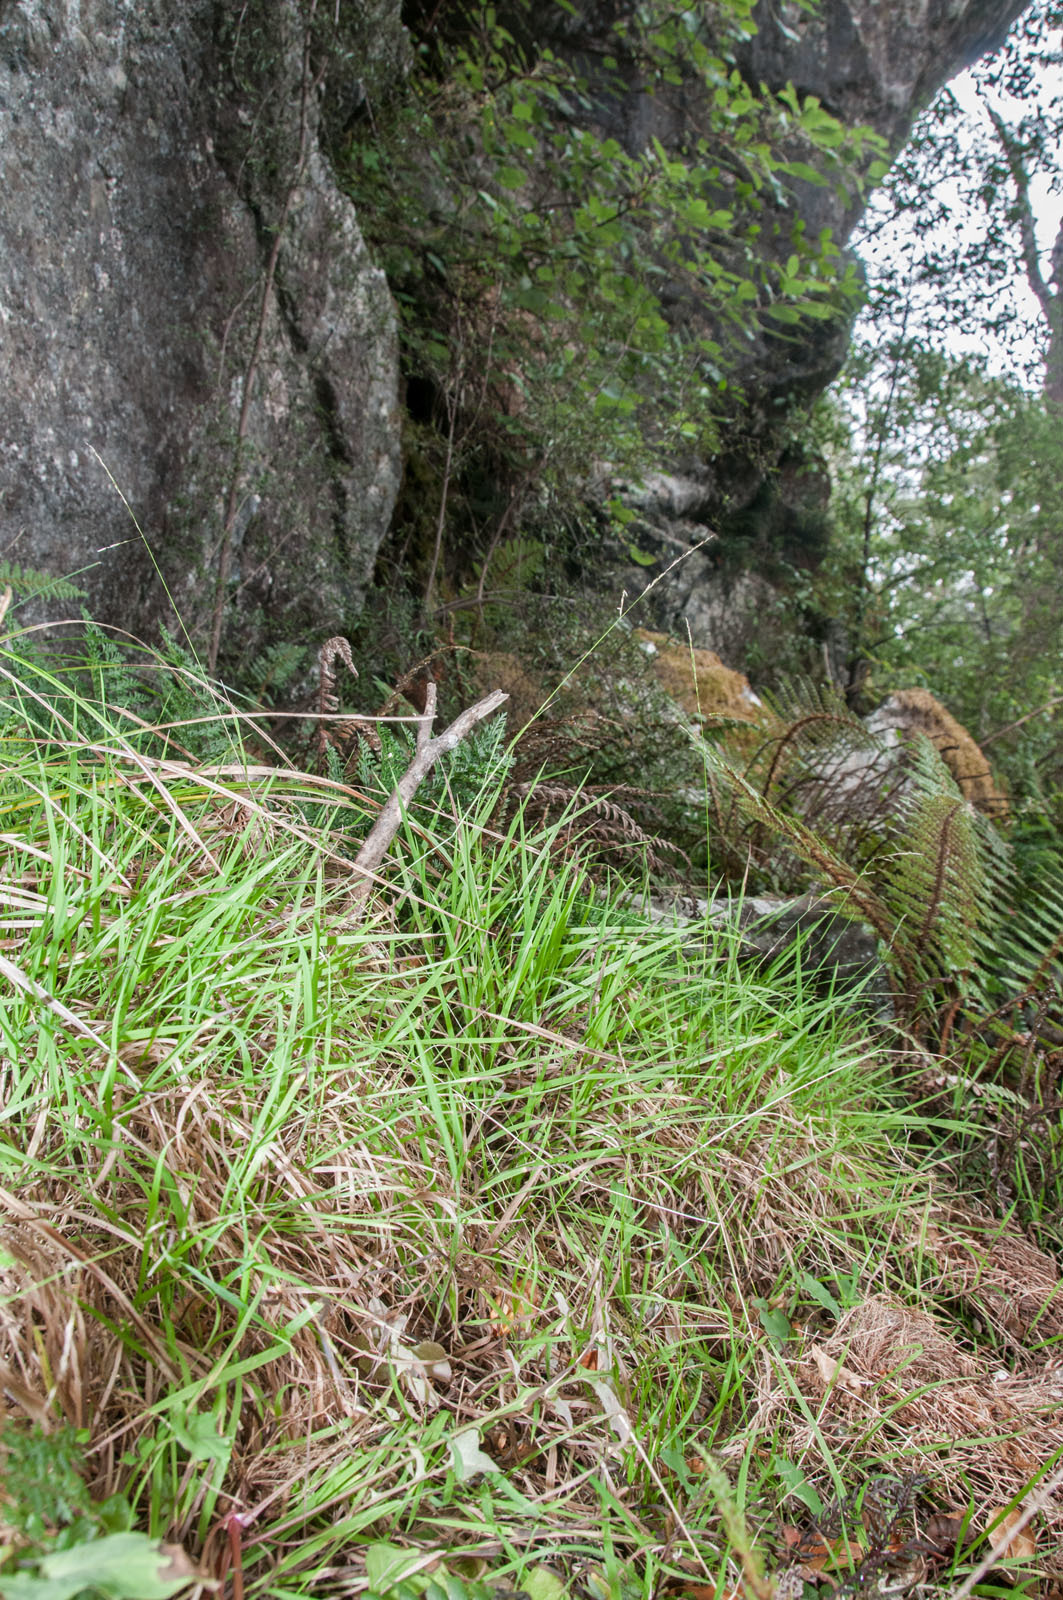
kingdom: Plantae
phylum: Tracheophyta
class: Liliopsida
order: Poales
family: Poaceae
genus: Simplicia
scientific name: Simplicia buchananii
